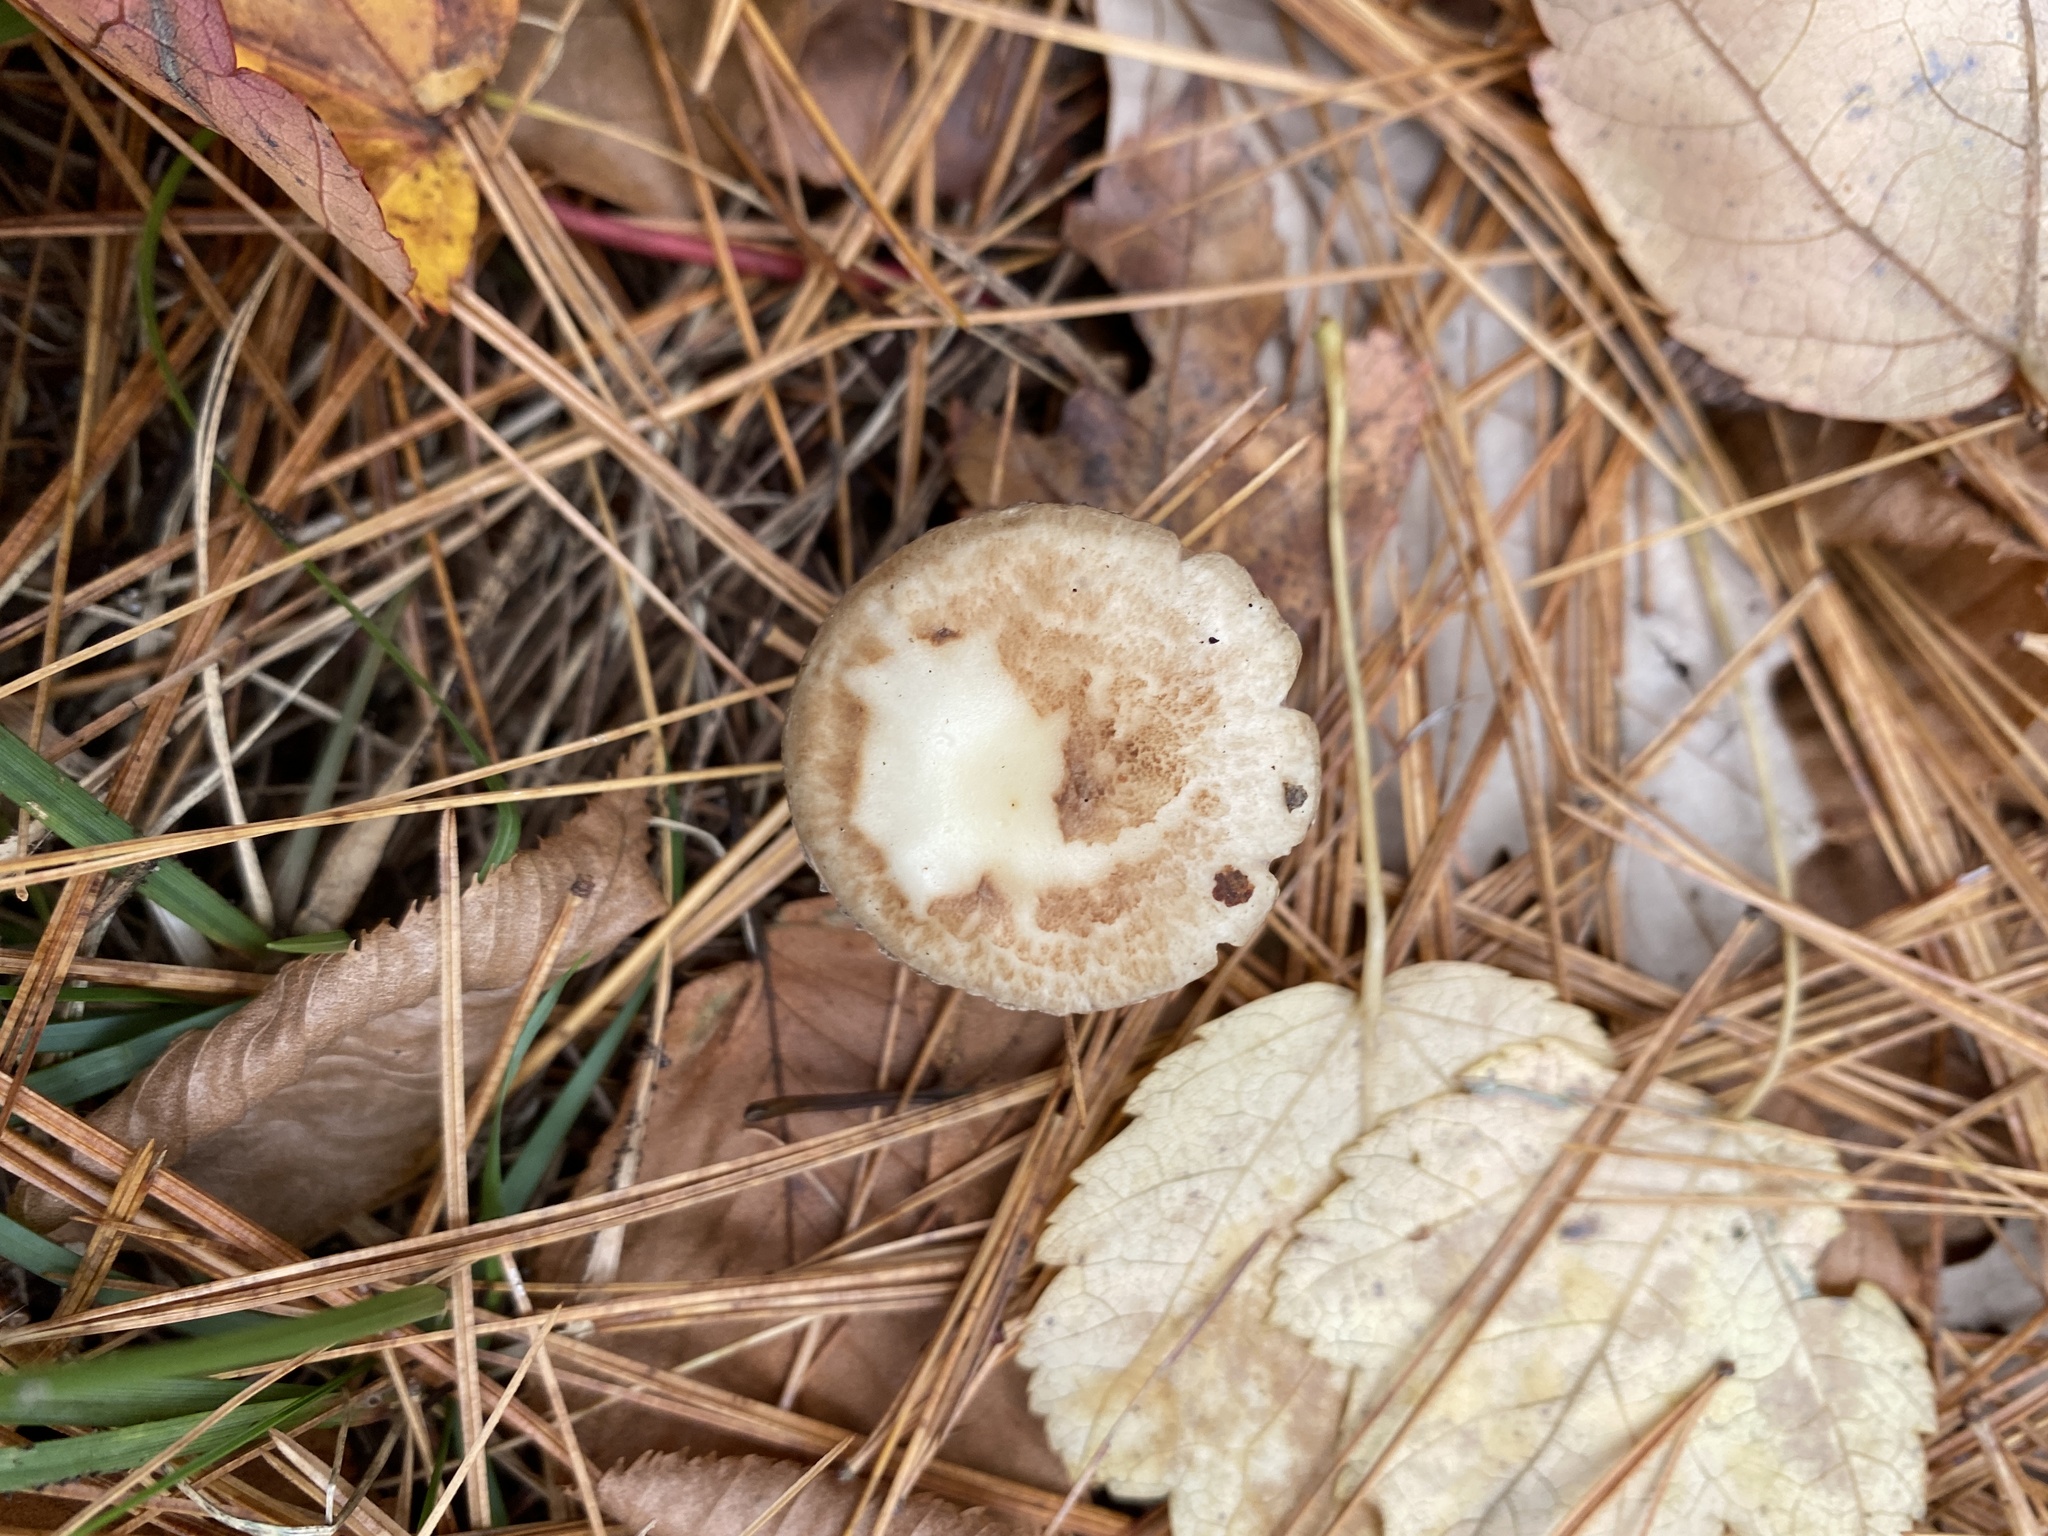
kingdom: Fungi
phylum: Basidiomycota
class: Agaricomycetes
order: Agaricales
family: Amanitaceae
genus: Amanita
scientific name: Amanita lavendula
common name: Coker's lavender staining amanita
